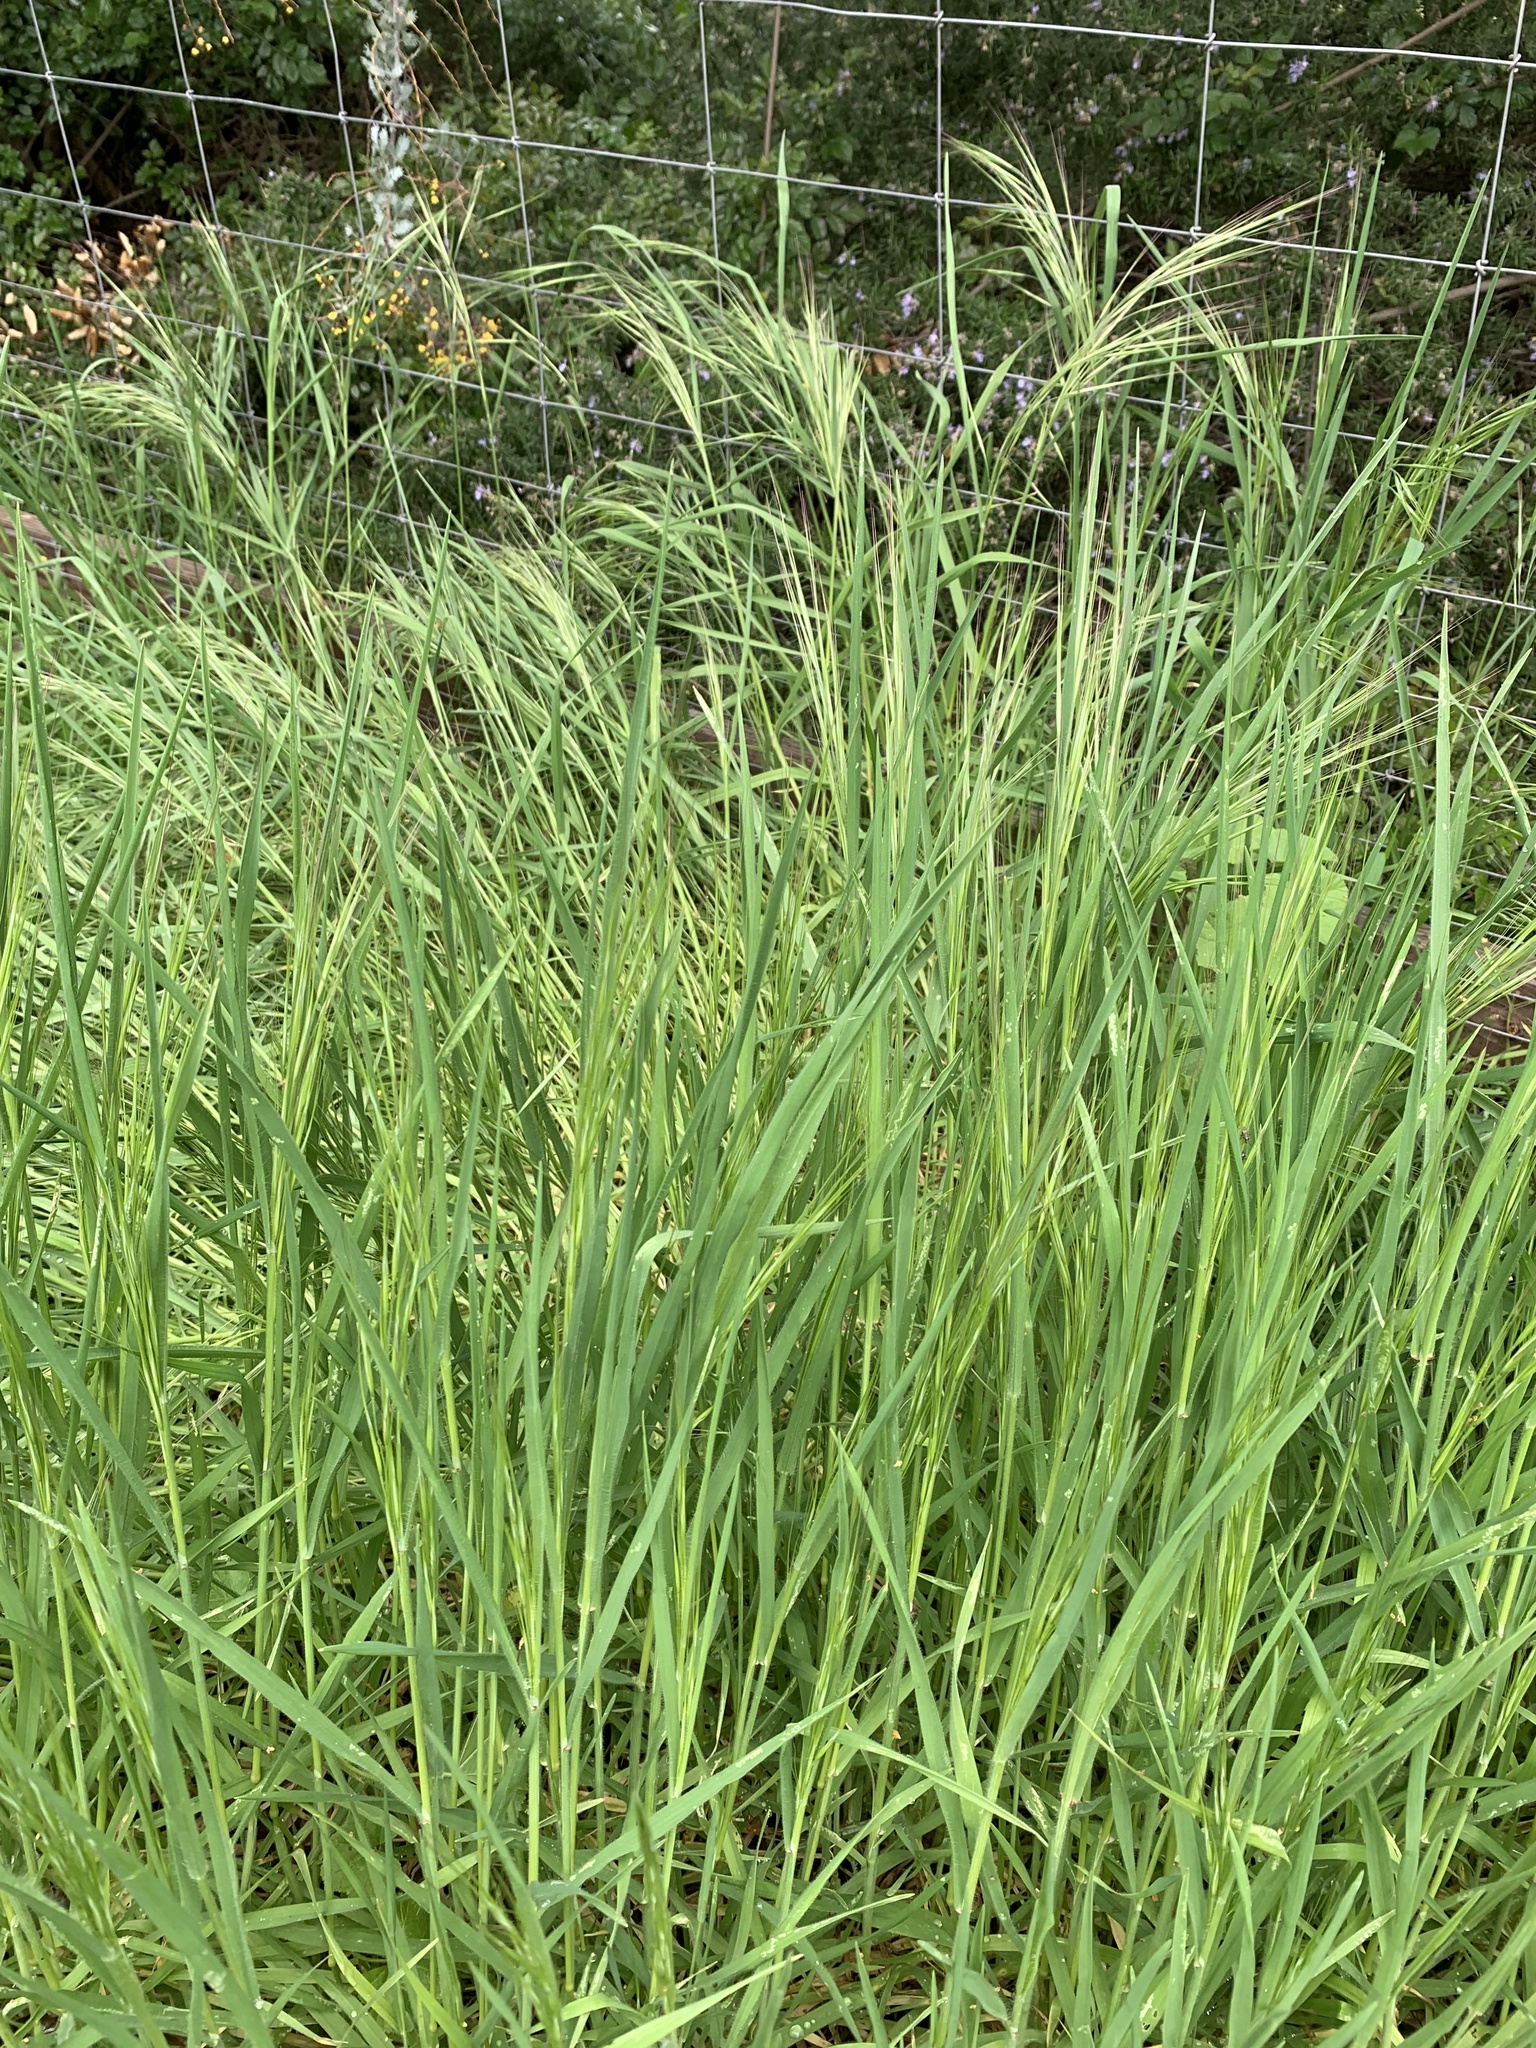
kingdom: Plantae
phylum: Tracheophyta
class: Liliopsida
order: Poales
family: Poaceae
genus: Bromus
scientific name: Bromus diandrus
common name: Ripgut brome
